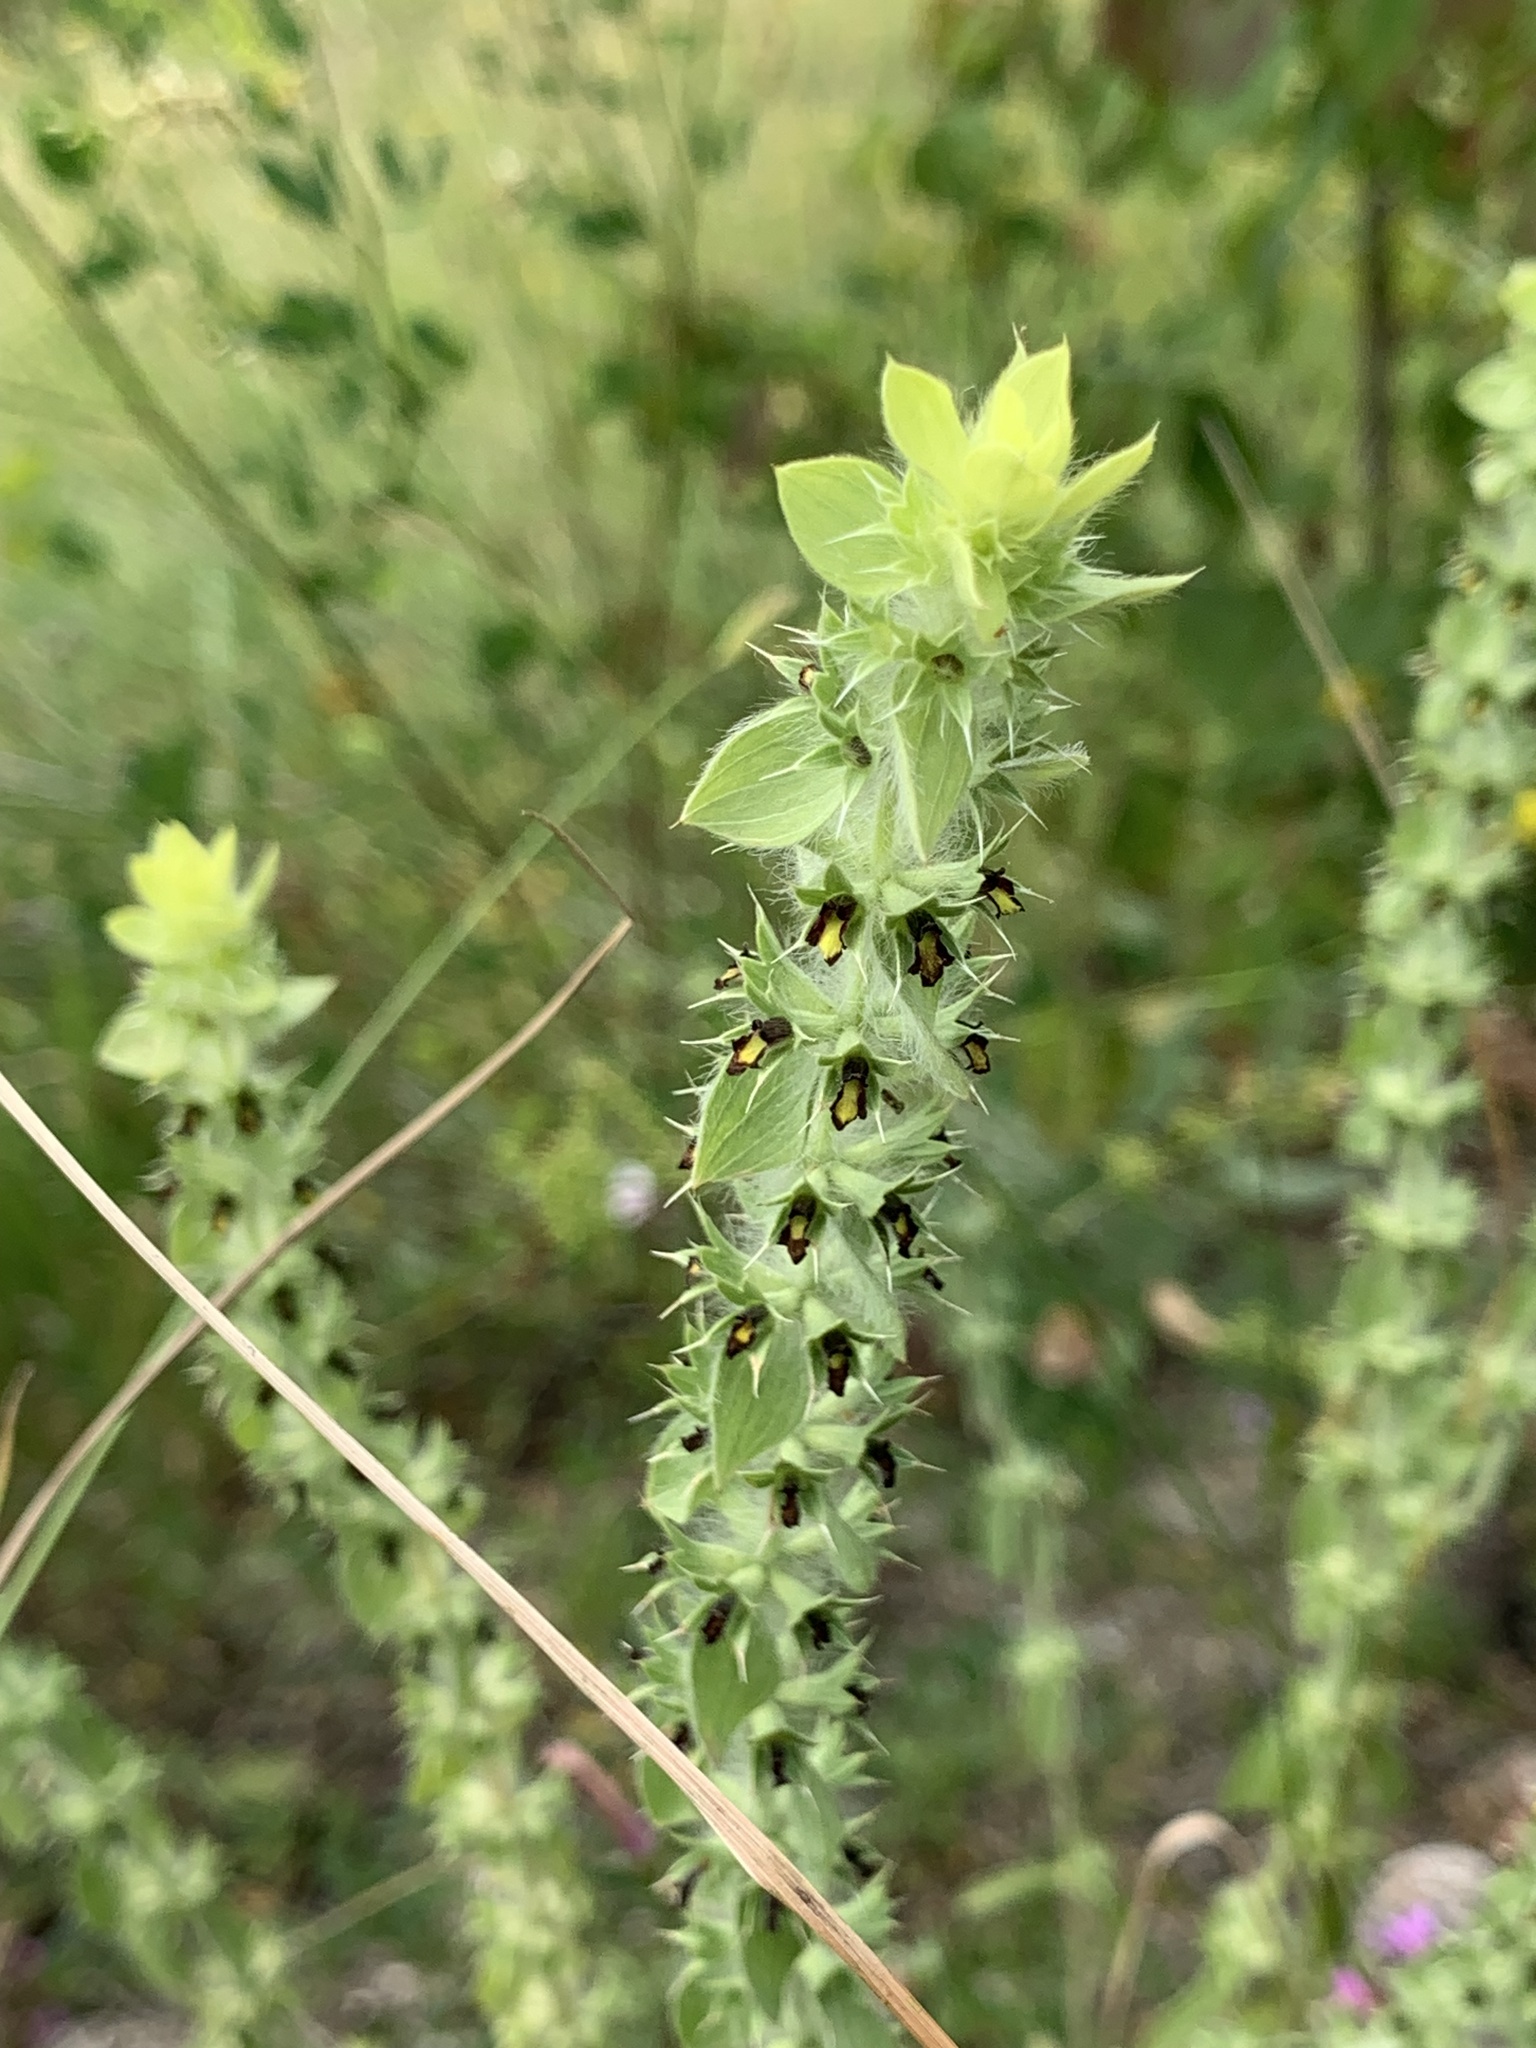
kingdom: Plantae
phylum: Tracheophyta
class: Magnoliopsida
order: Lamiales
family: Lamiaceae
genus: Sideritis
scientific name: Sideritis montana
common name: Mountain ironwort
